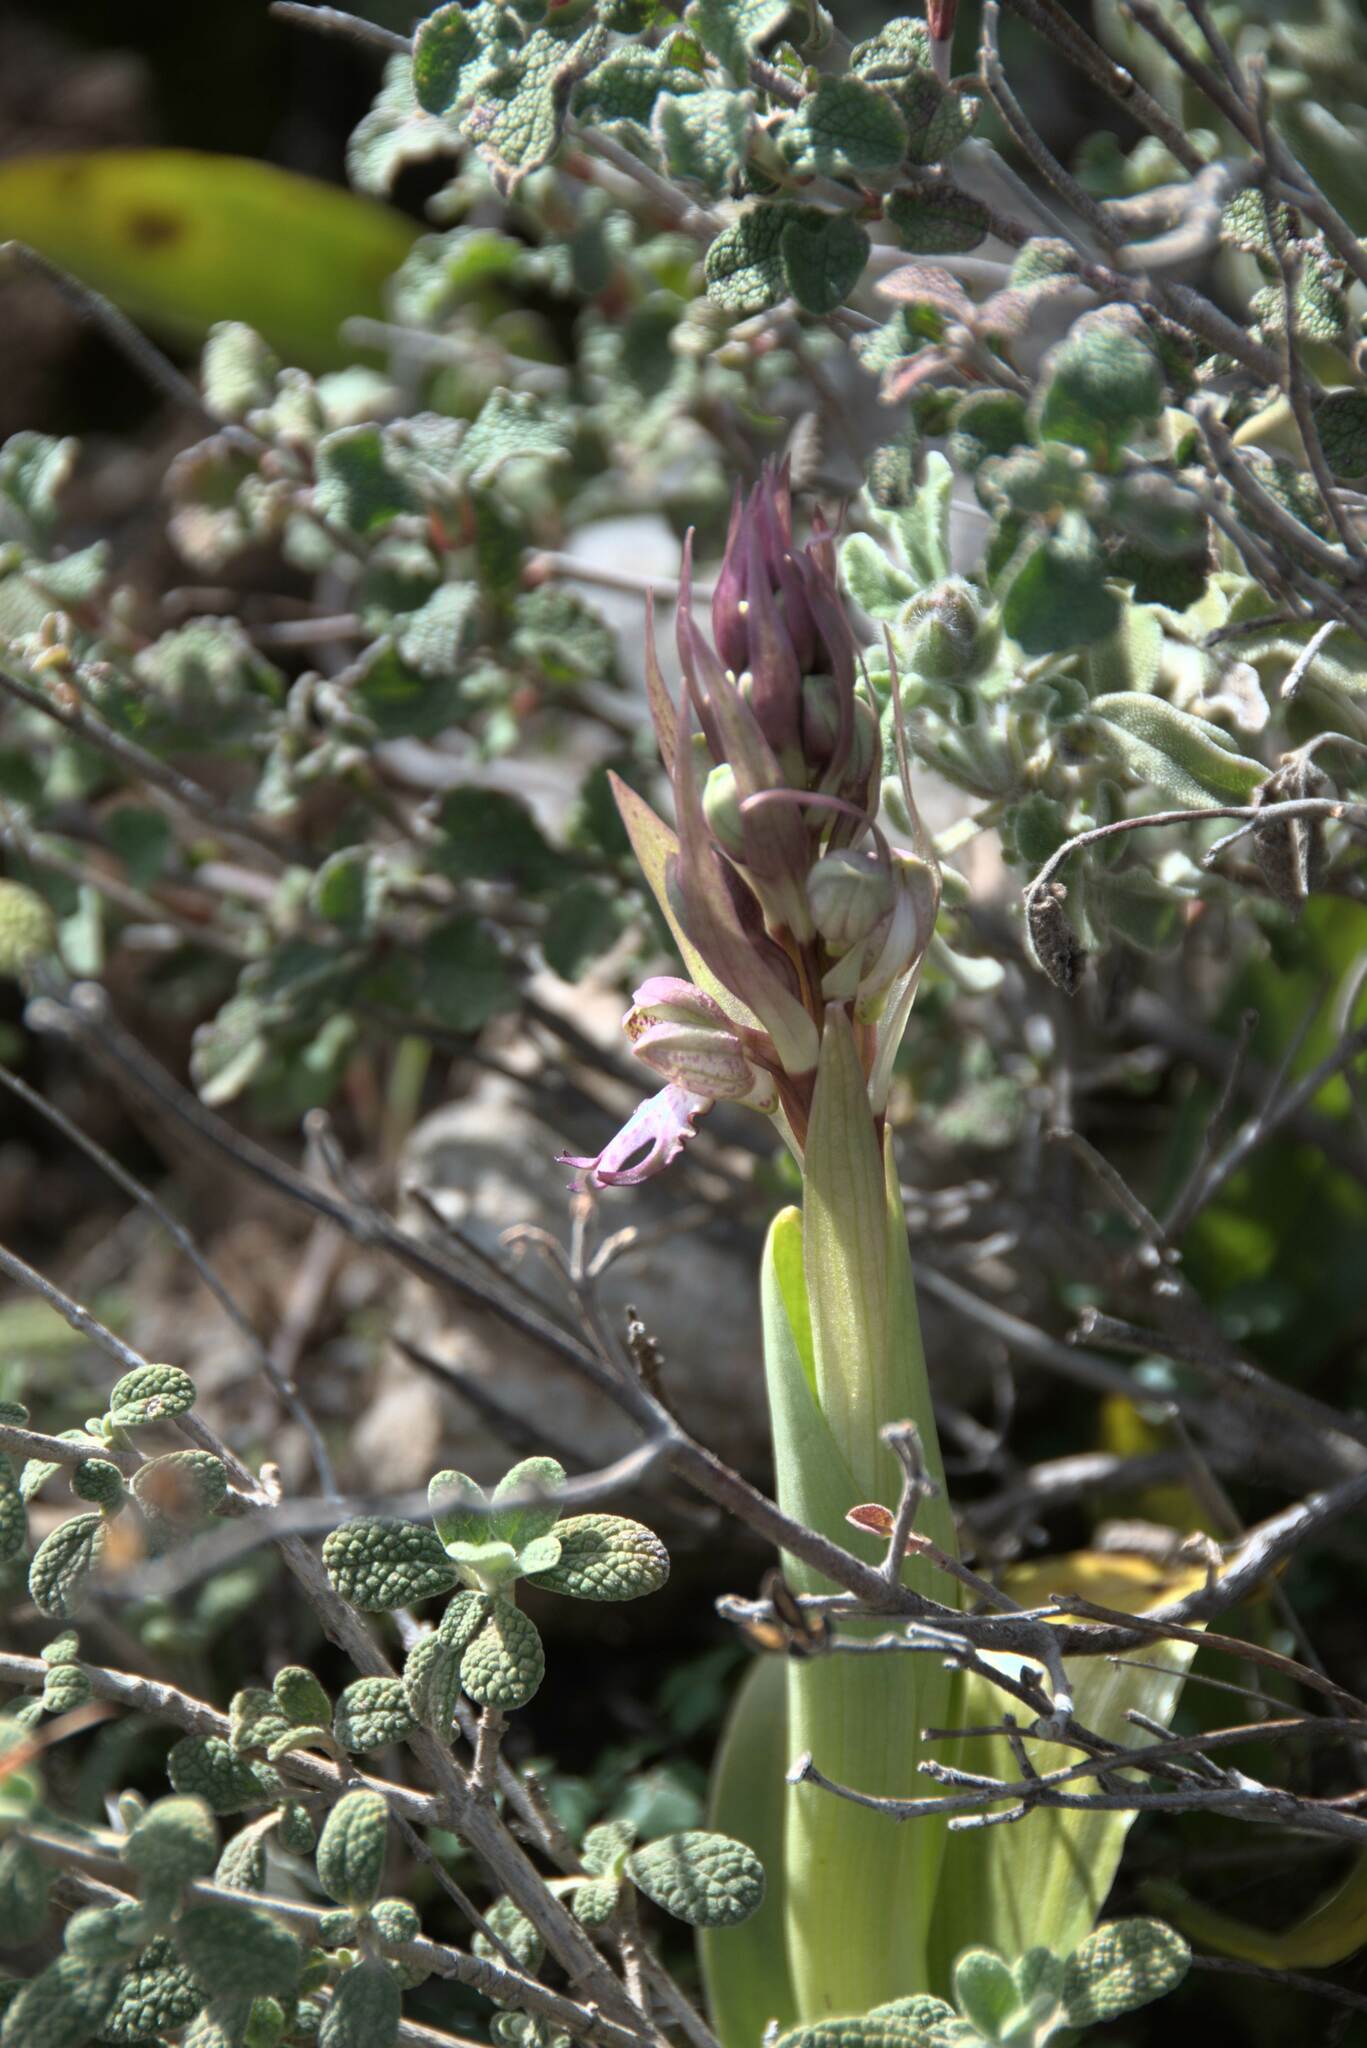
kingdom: Plantae
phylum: Tracheophyta
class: Liliopsida
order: Asparagales
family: Orchidaceae
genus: Himantoglossum
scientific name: Himantoglossum robertianum
